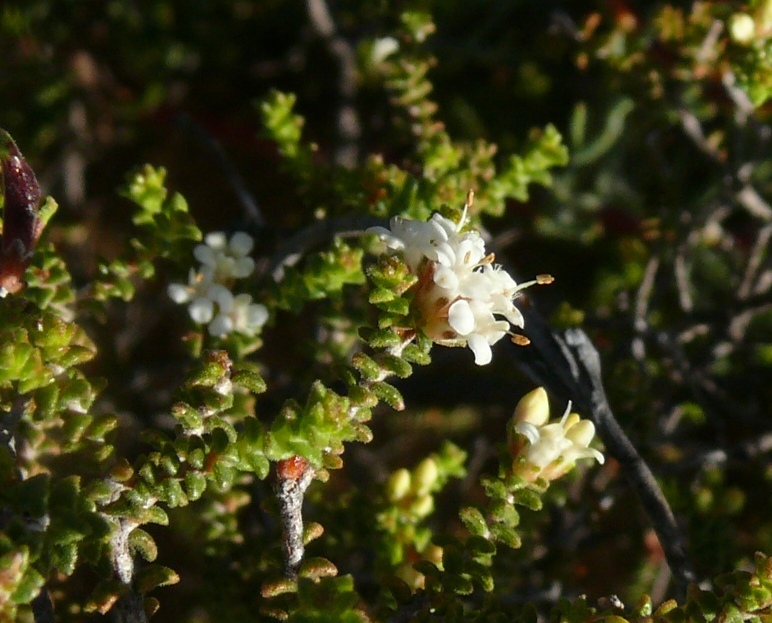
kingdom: Plantae
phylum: Tracheophyta
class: Magnoliopsida
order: Sapindales
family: Rutaceae
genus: Macrostylis
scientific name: Macrostylis squarrosa
